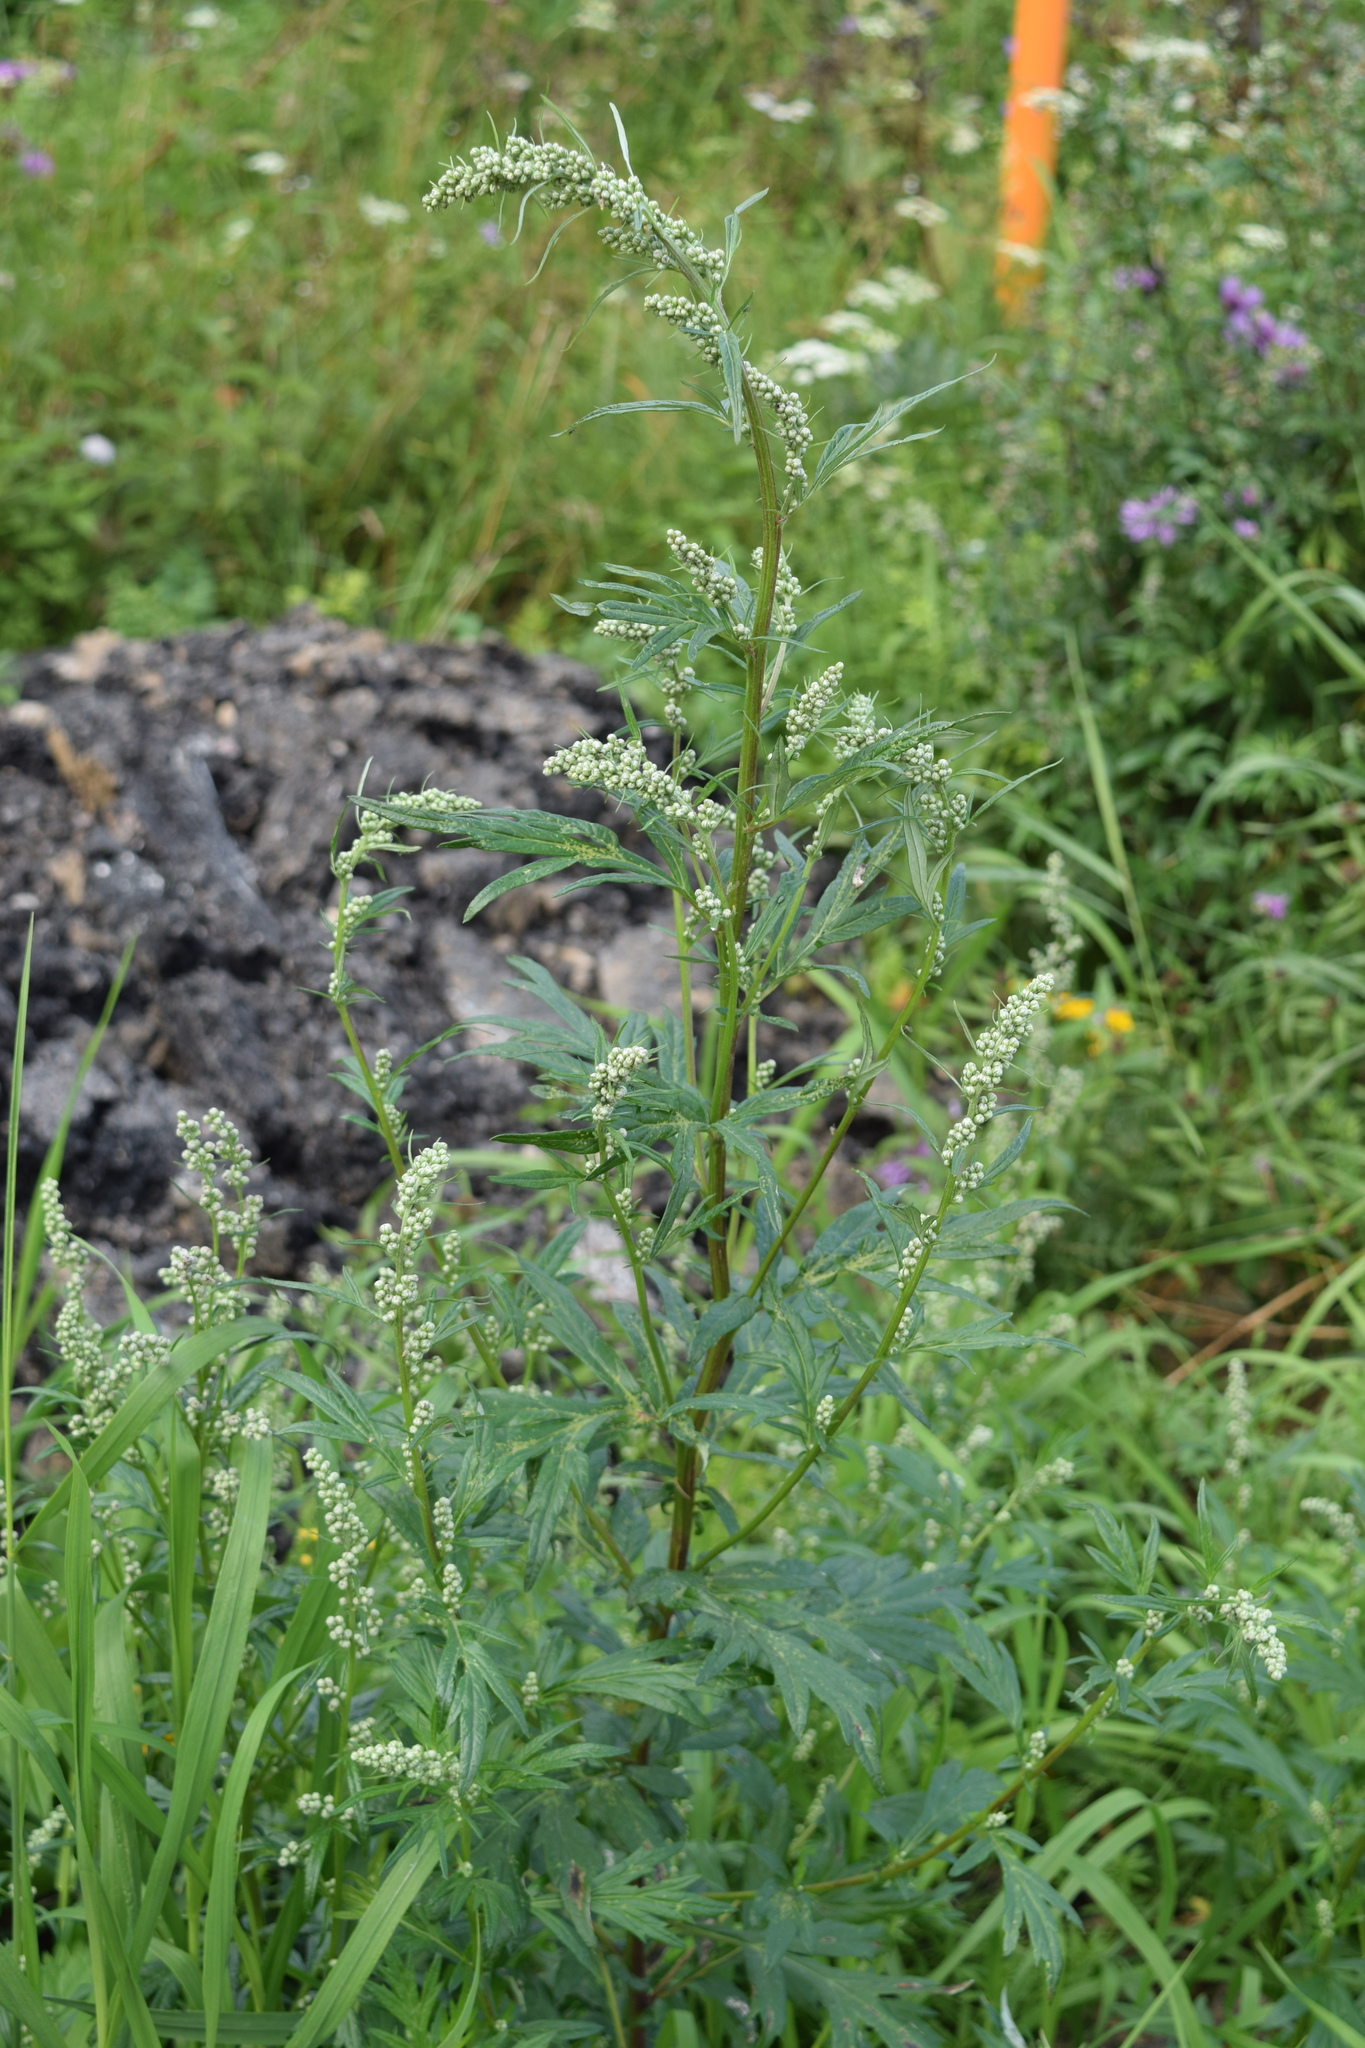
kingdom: Plantae
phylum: Tracheophyta
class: Magnoliopsida
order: Asterales
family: Asteraceae
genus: Artemisia
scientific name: Artemisia vulgaris
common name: Mugwort
